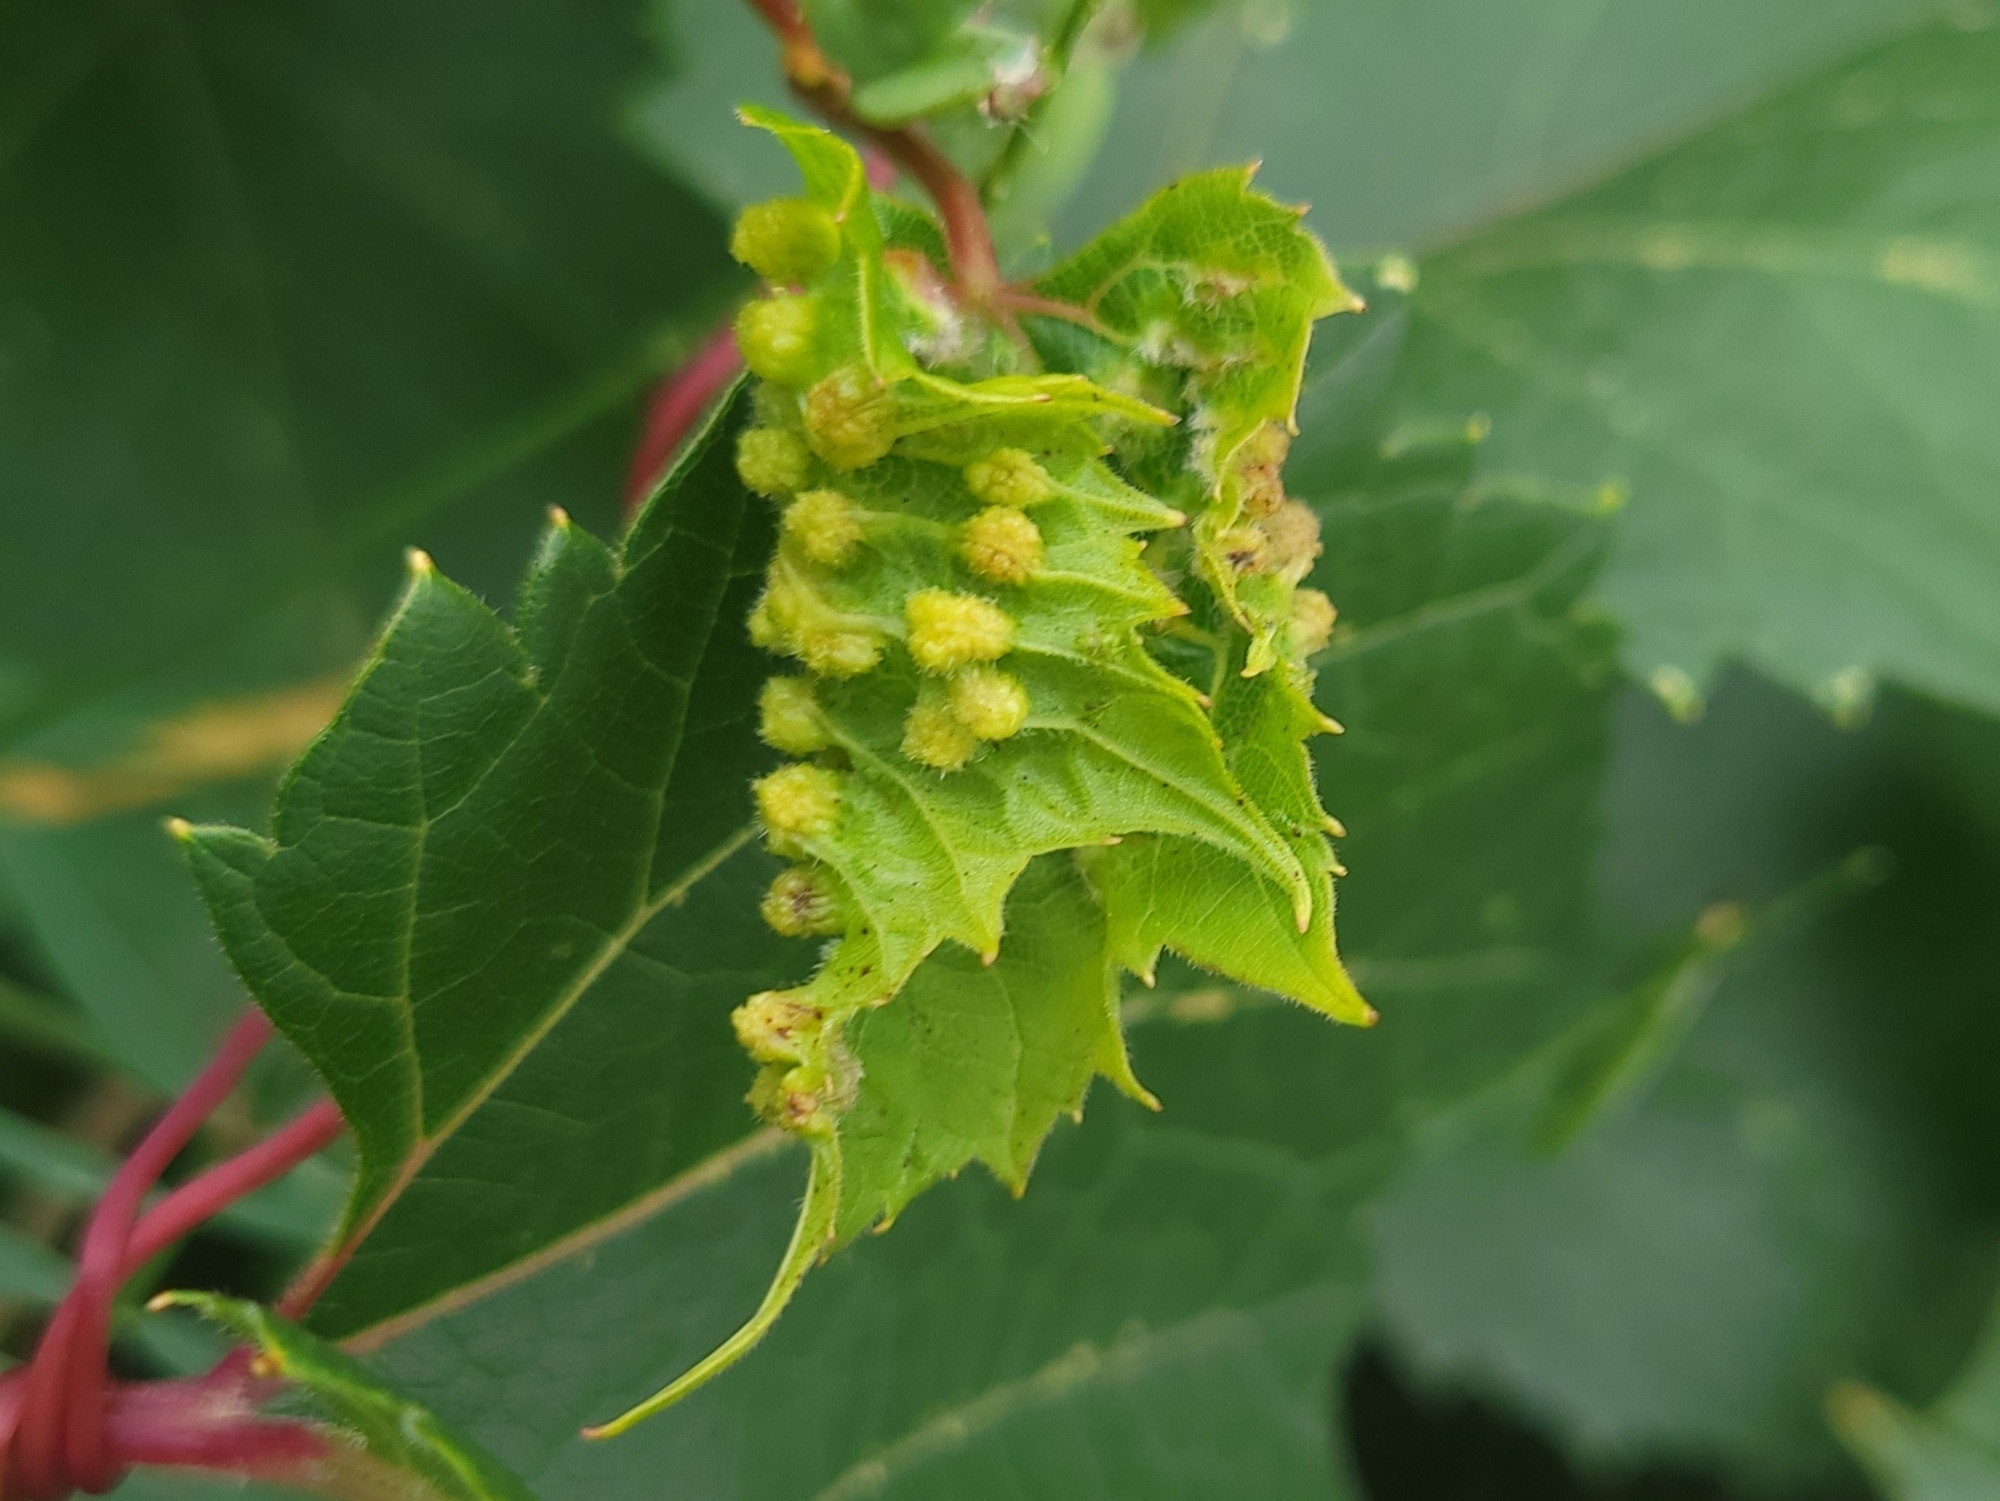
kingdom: Animalia
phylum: Arthropoda
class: Insecta
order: Hemiptera
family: Phylloxeridae
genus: Daktulosphaira
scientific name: Daktulosphaira vitifoliae
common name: Grape phylloxera
